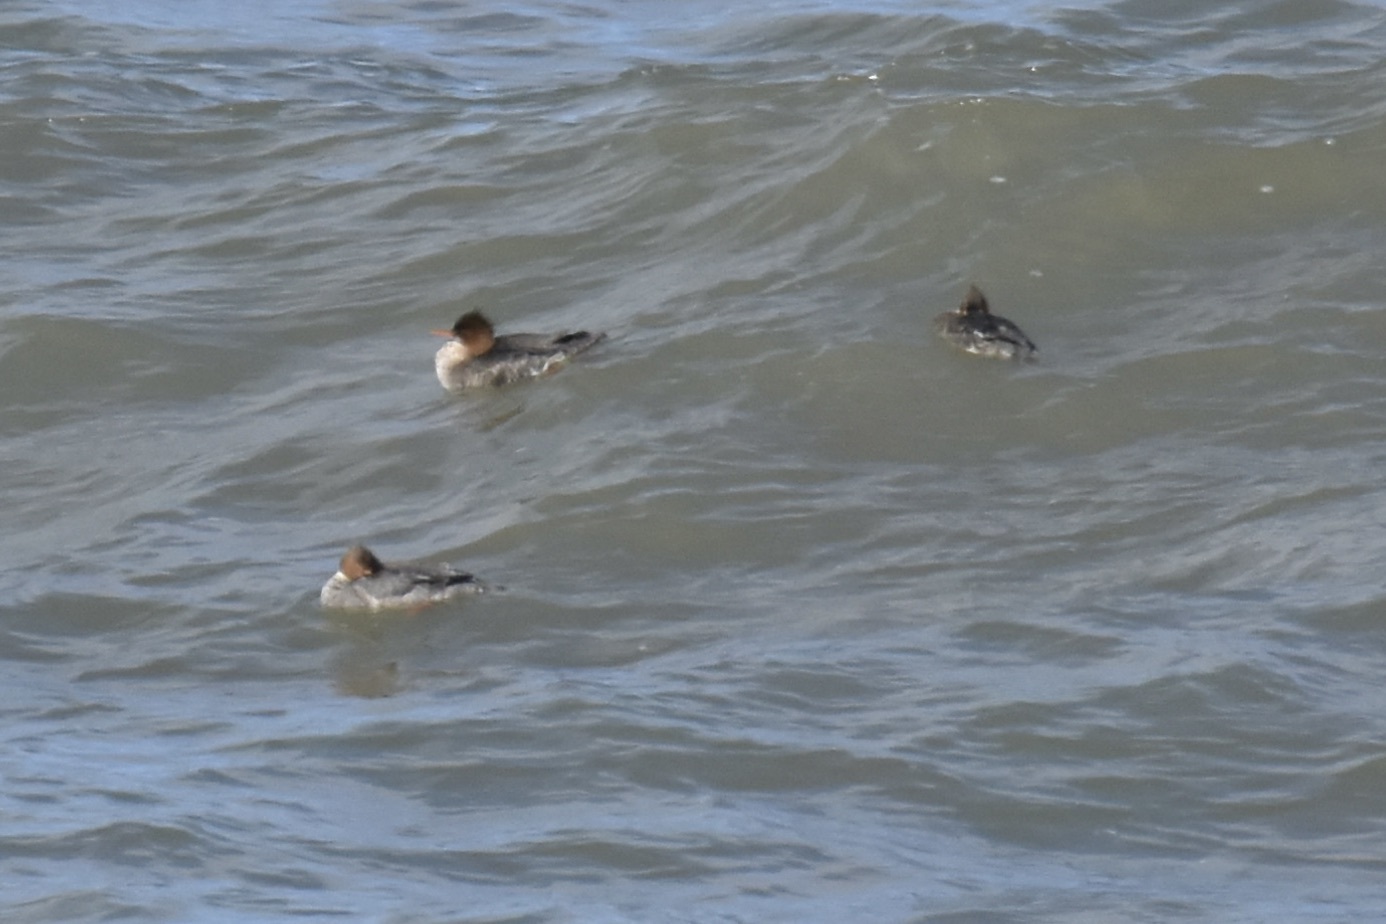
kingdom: Animalia
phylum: Chordata
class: Aves
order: Anseriformes
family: Anatidae
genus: Mergus
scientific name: Mergus serrator
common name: Red-breasted merganser
